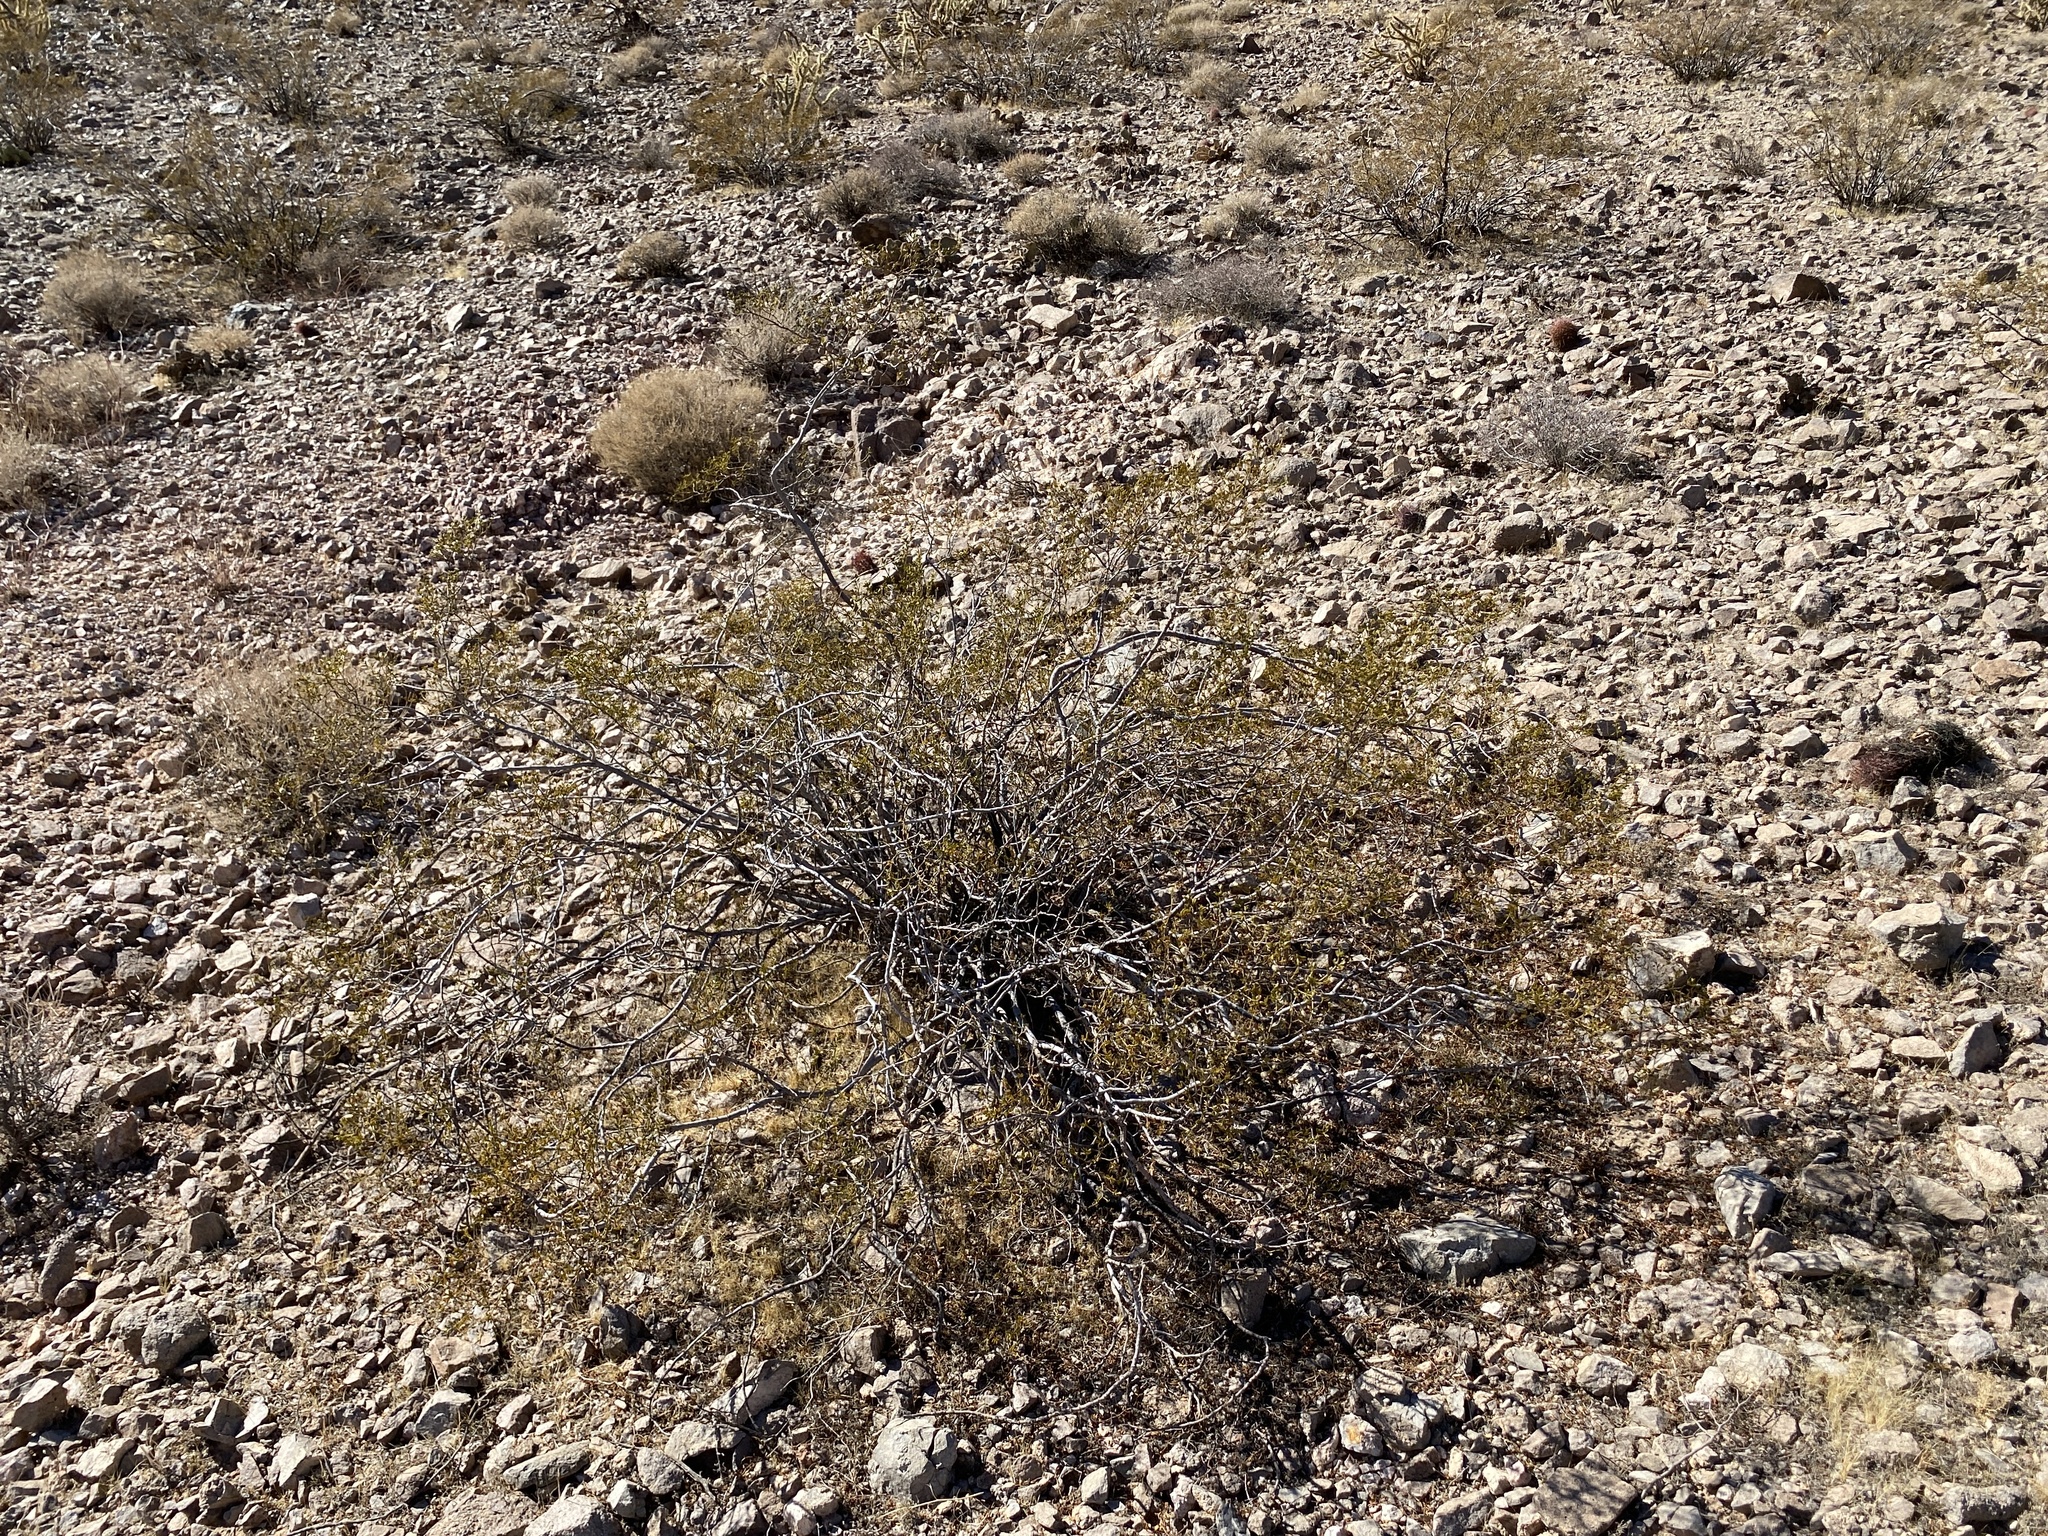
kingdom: Plantae
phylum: Tracheophyta
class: Magnoliopsida
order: Zygophyllales
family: Zygophyllaceae
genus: Larrea
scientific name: Larrea tridentata
